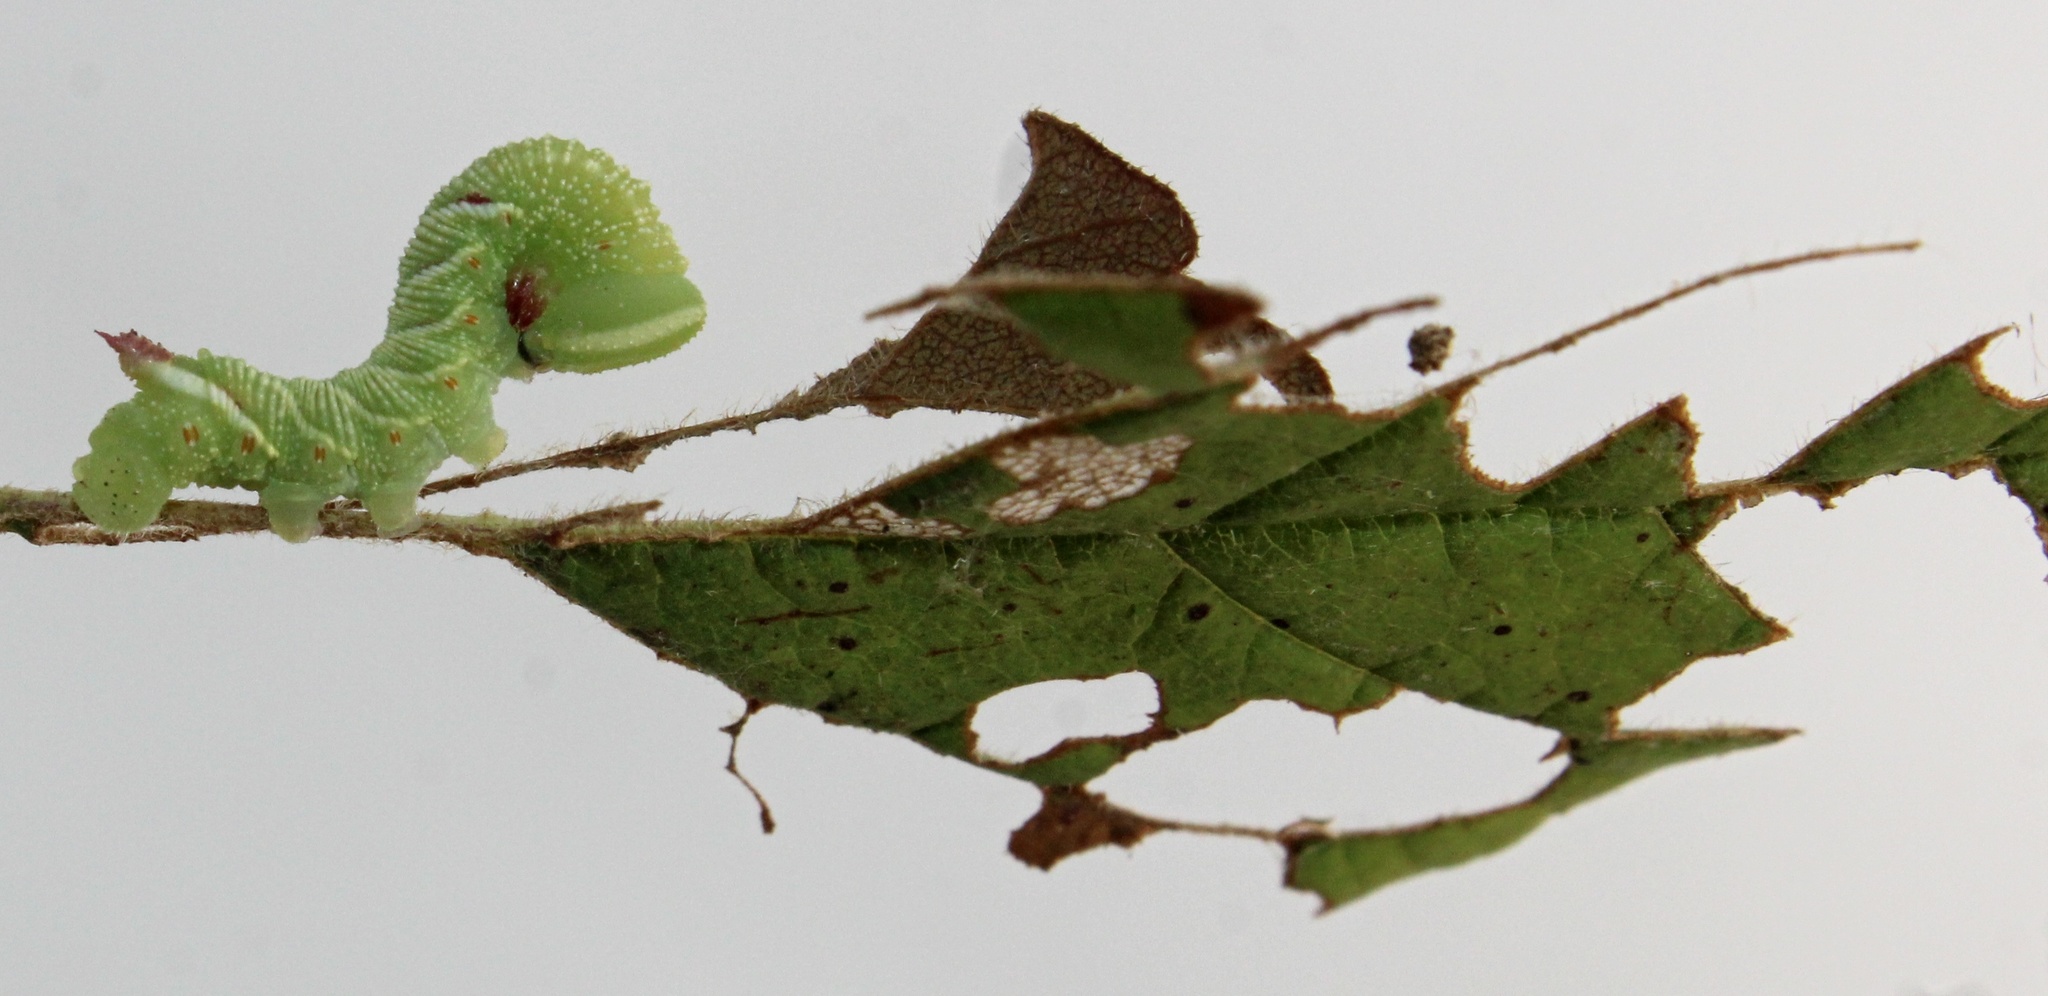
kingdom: Animalia
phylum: Arthropoda
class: Insecta
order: Lepidoptera
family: Sphingidae
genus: Ceratomia
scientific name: Ceratomia undulosa
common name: Waved sphinx
